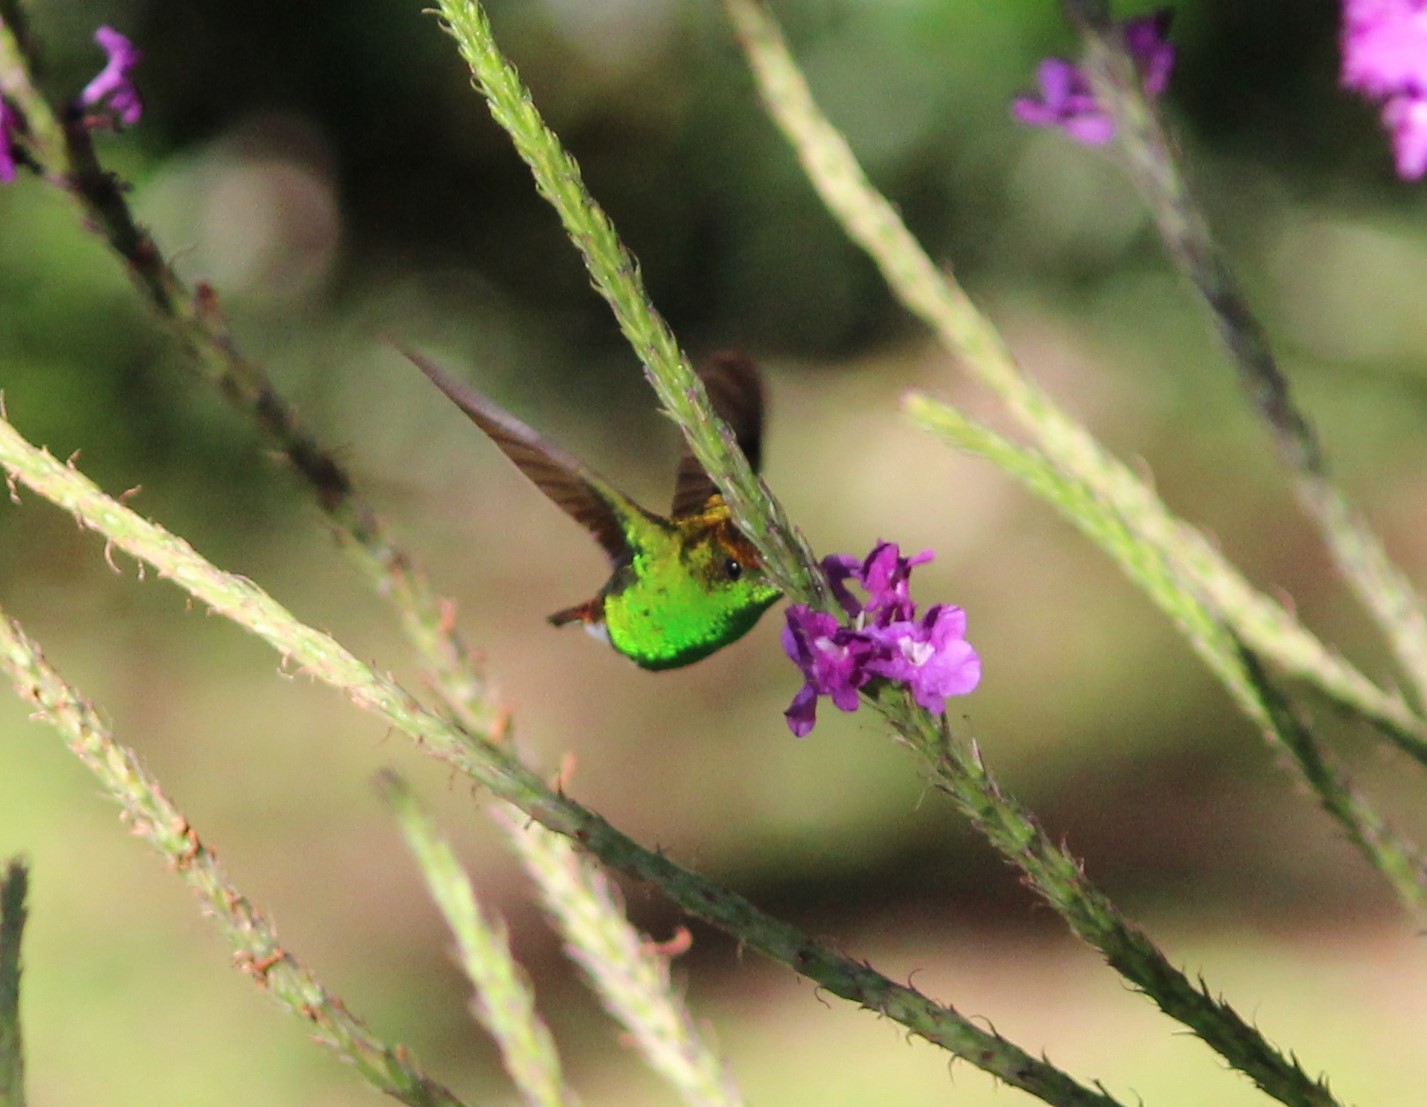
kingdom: Animalia
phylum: Chordata
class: Aves
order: Apodiformes
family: Trochilidae
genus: Microchera
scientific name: Microchera cupreiceps
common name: Coppery-headed emerald
